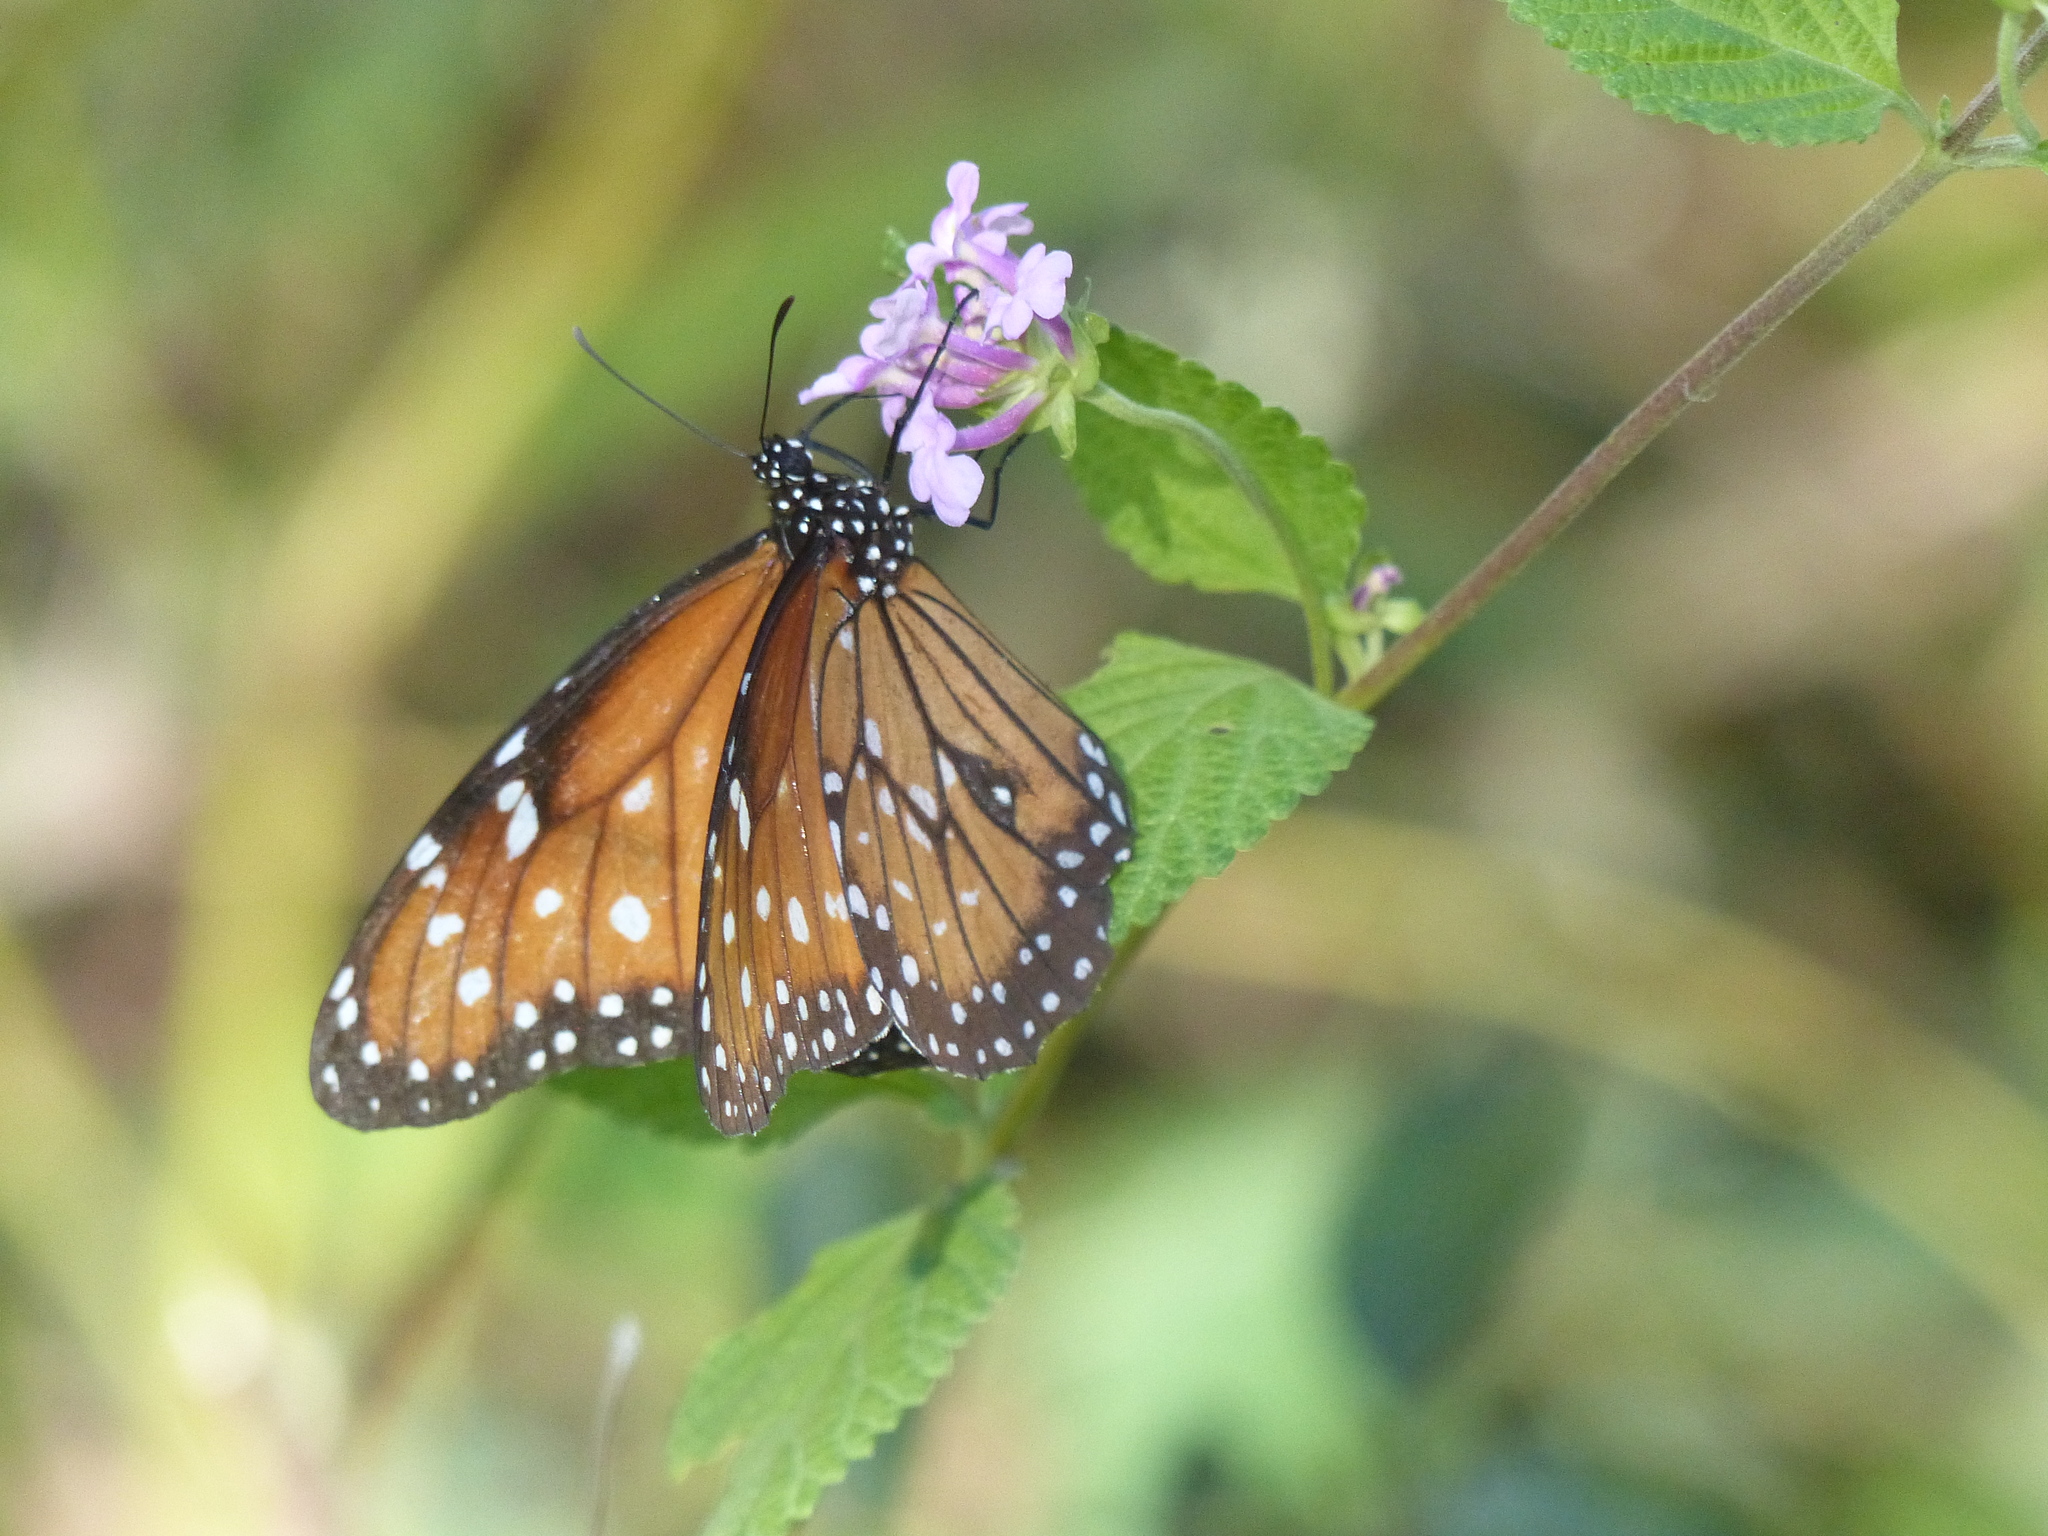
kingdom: Animalia
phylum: Arthropoda
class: Insecta
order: Lepidoptera
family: Nymphalidae
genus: Danaus
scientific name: Danaus eresimus
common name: Soldier
